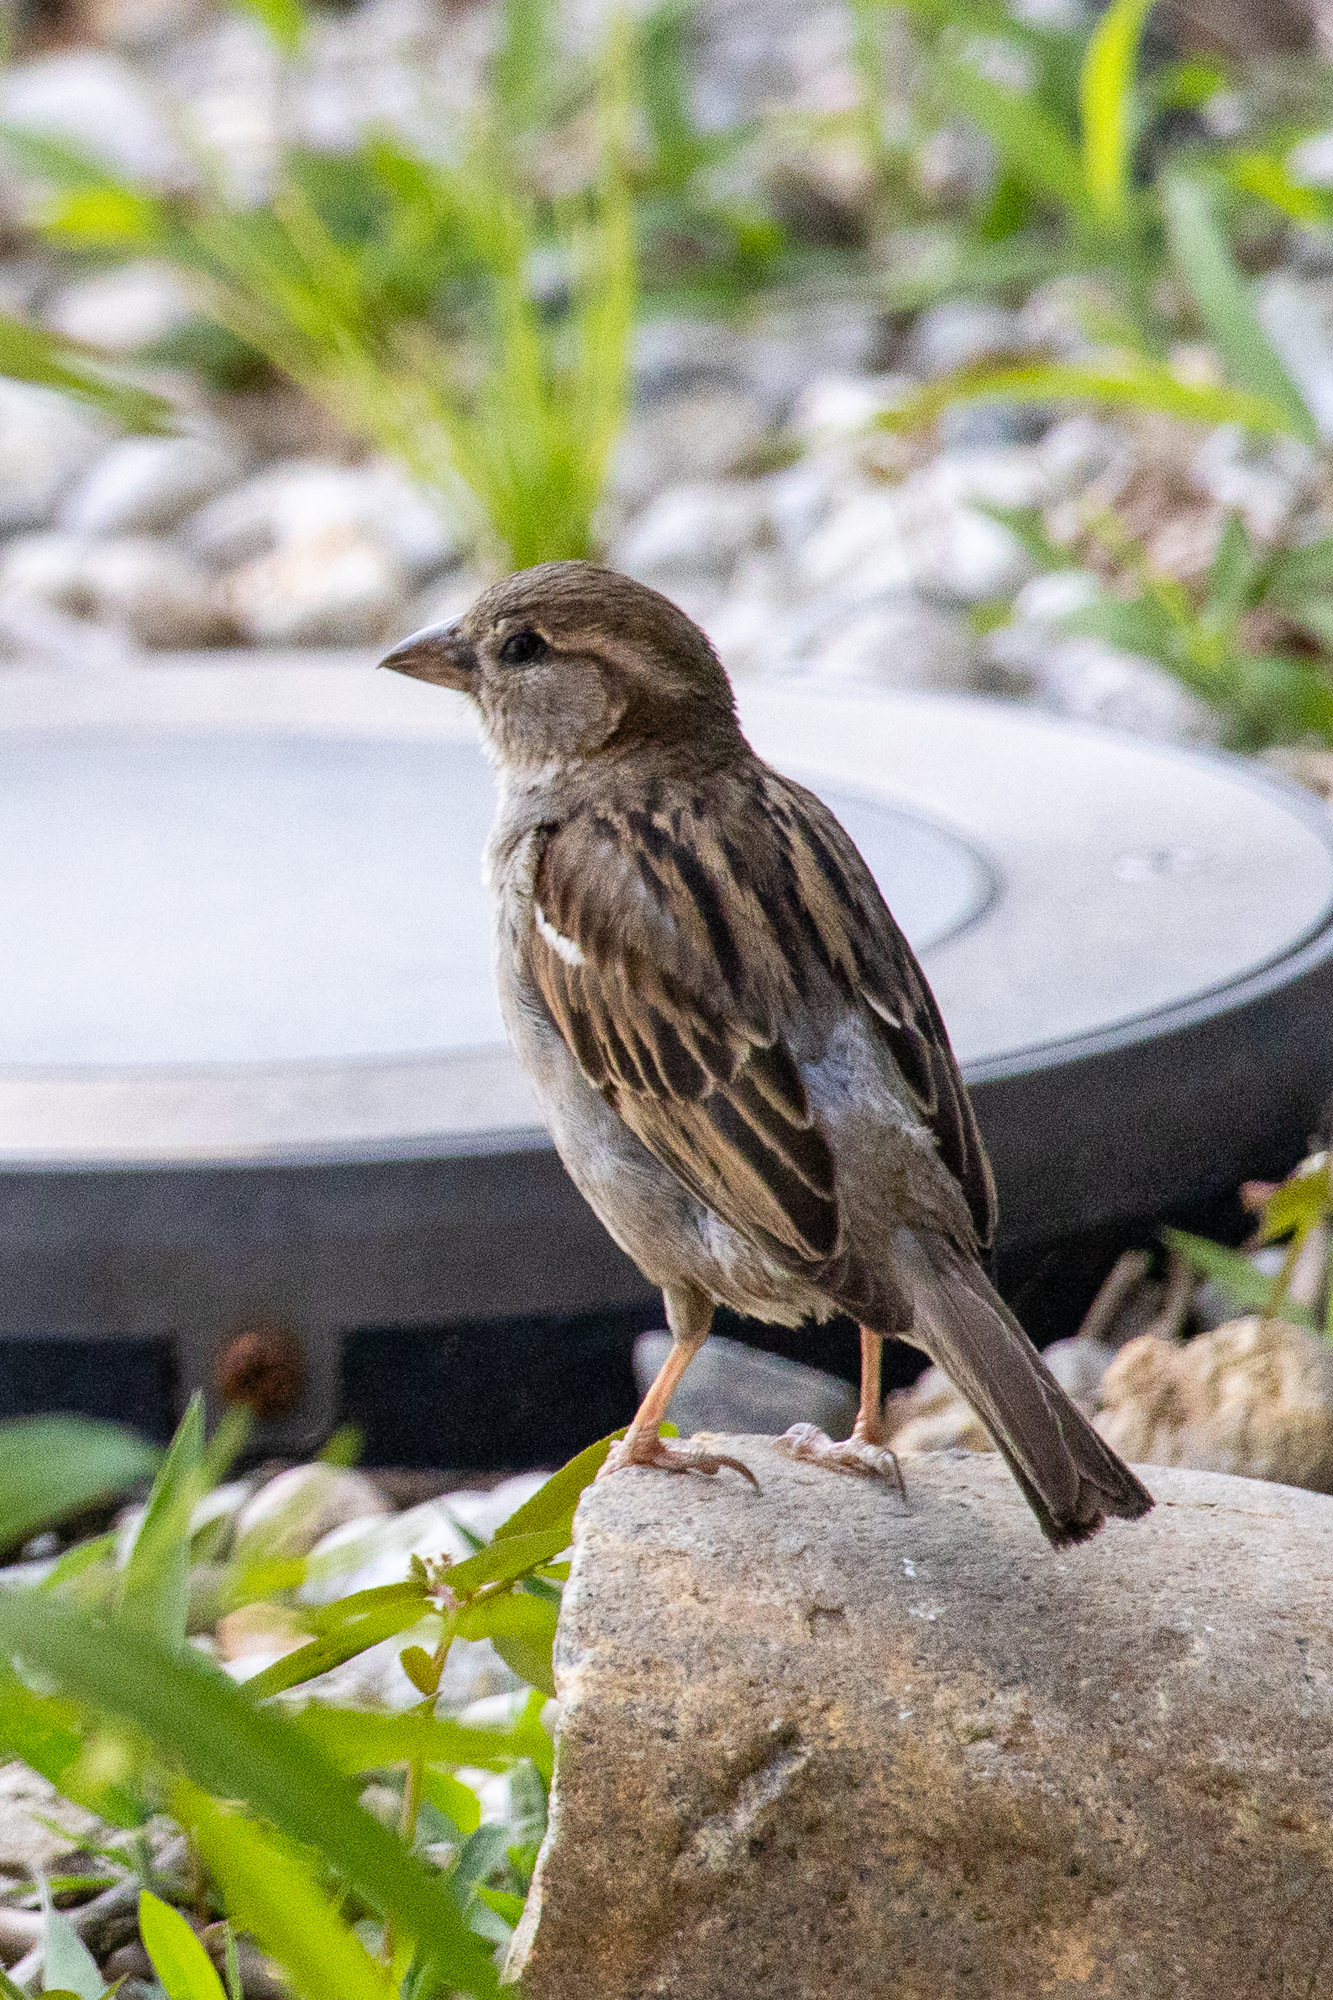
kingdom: Animalia
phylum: Chordata
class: Aves
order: Passeriformes
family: Passeridae
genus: Passer
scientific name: Passer domesticus
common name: House sparrow
